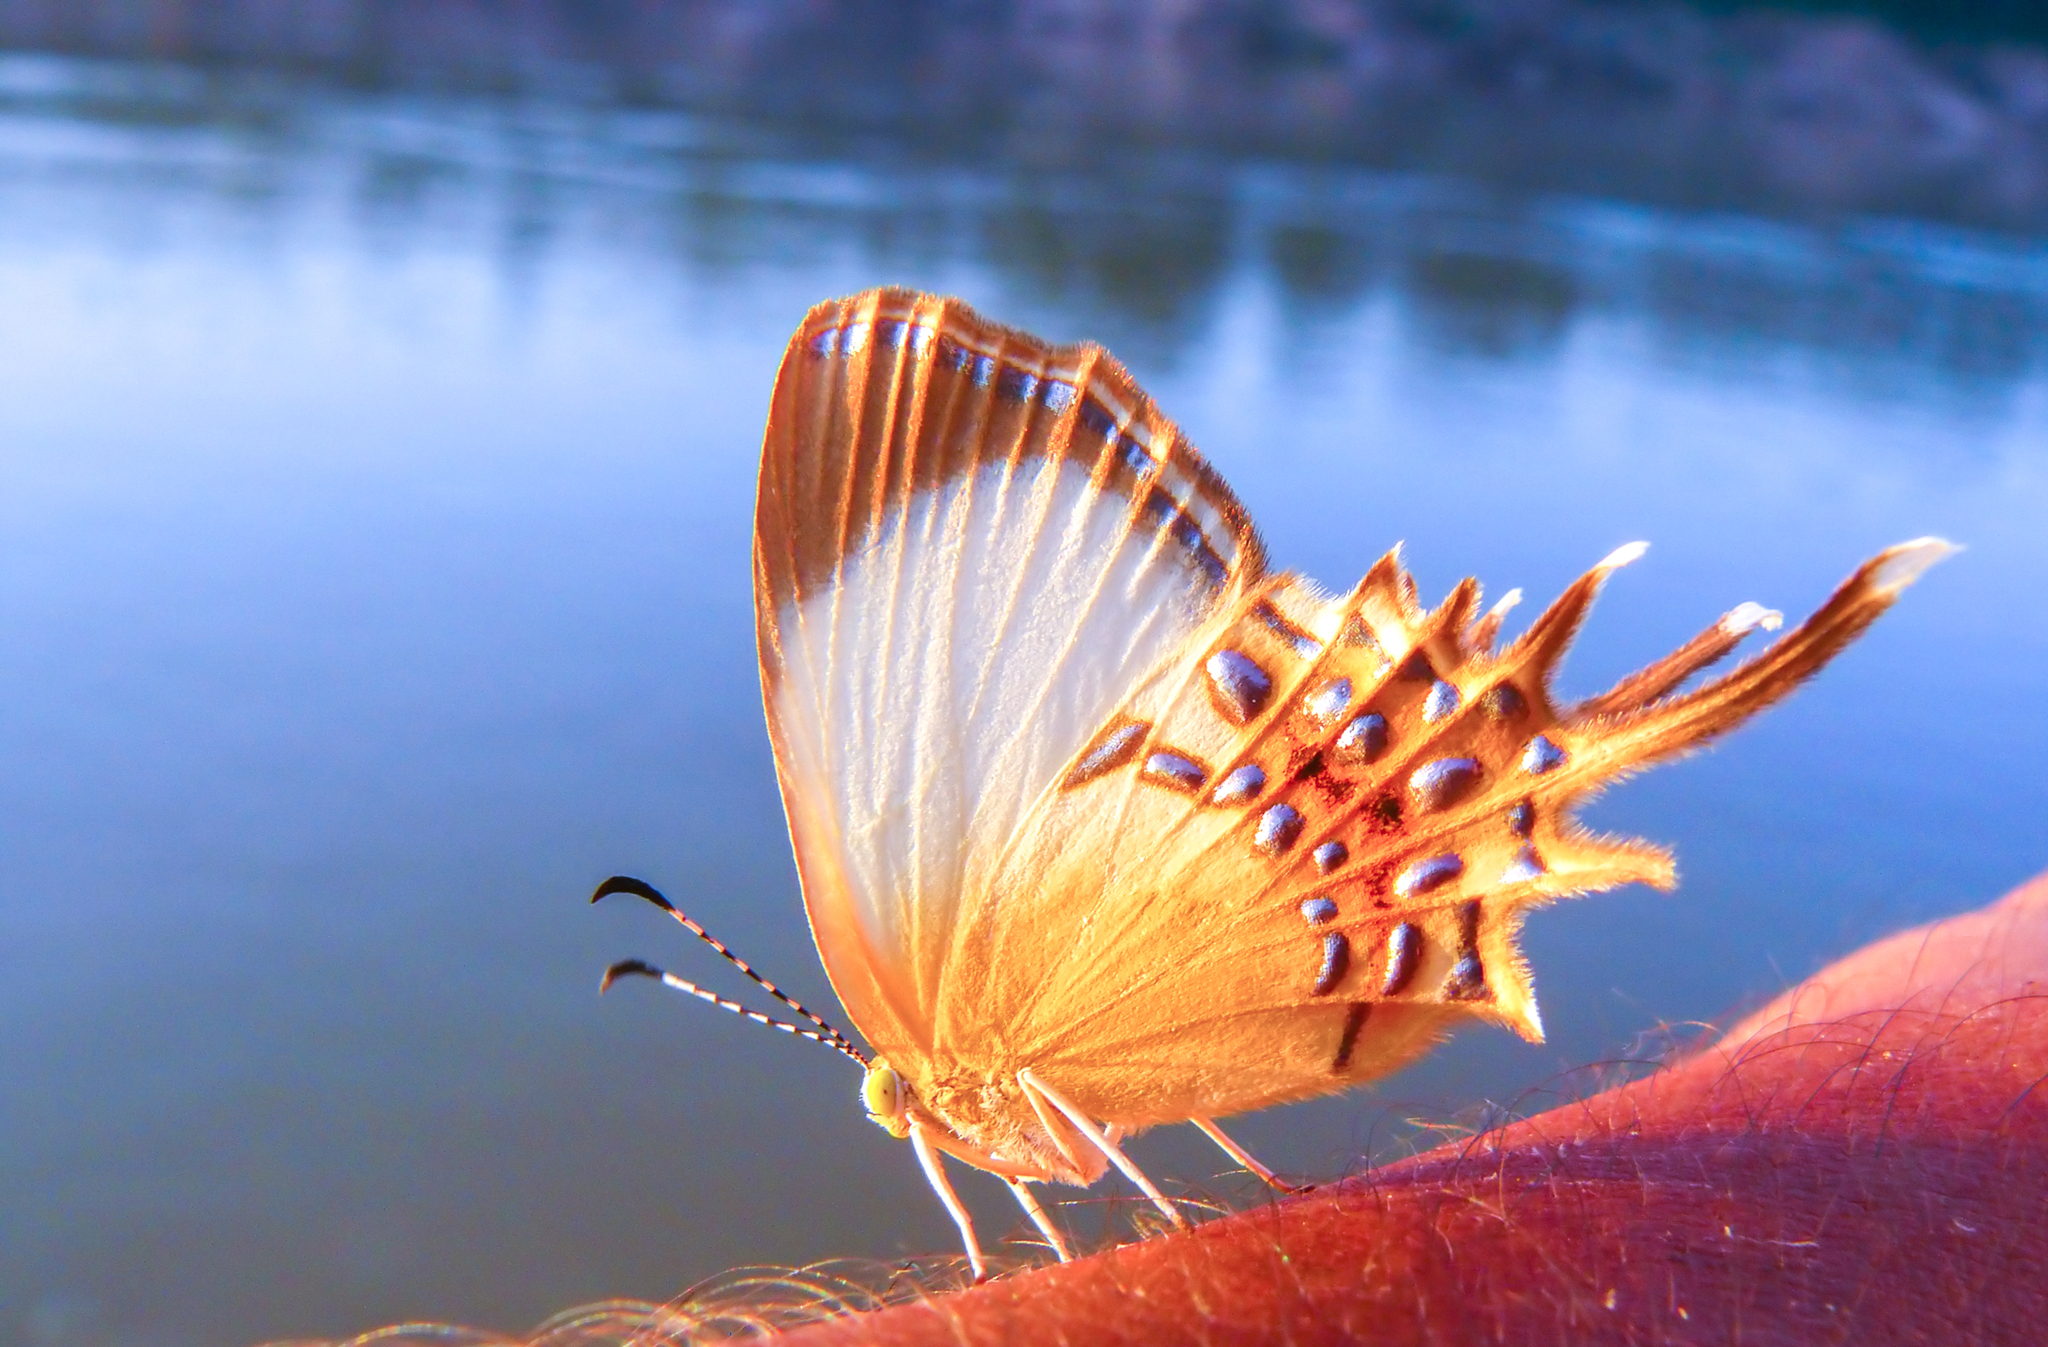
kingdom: Animalia
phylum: Arthropoda
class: Insecta
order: Lepidoptera
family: Riodinidae
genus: Helicopis
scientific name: Helicopis cupido
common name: Spangled cupid
